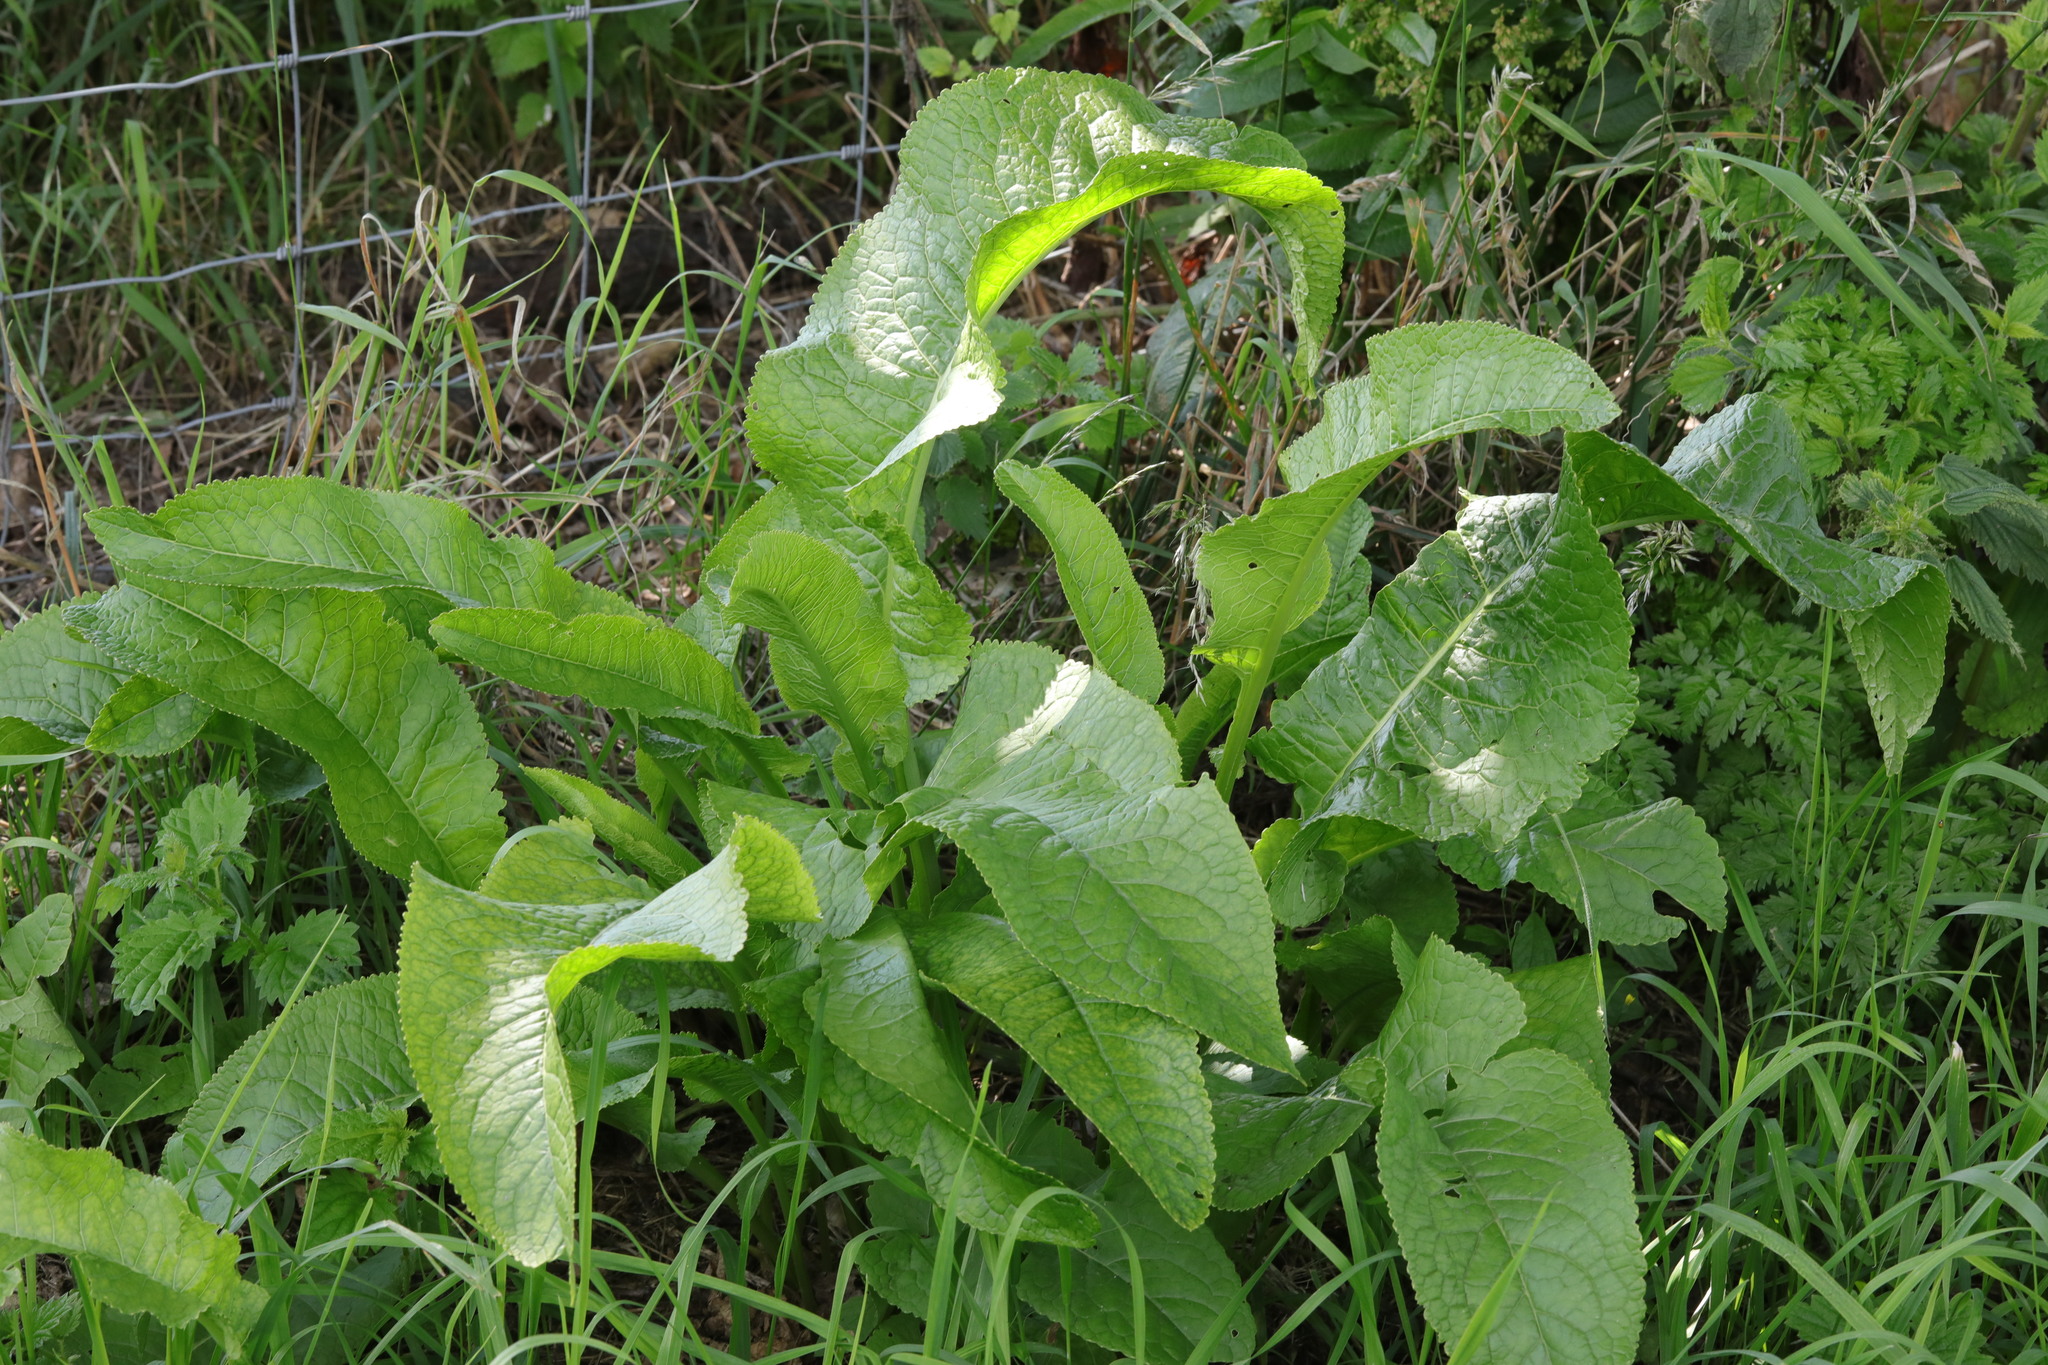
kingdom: Plantae
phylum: Tracheophyta
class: Magnoliopsida
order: Brassicales
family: Brassicaceae
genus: Armoracia
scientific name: Armoracia rusticana
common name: Horseradish
